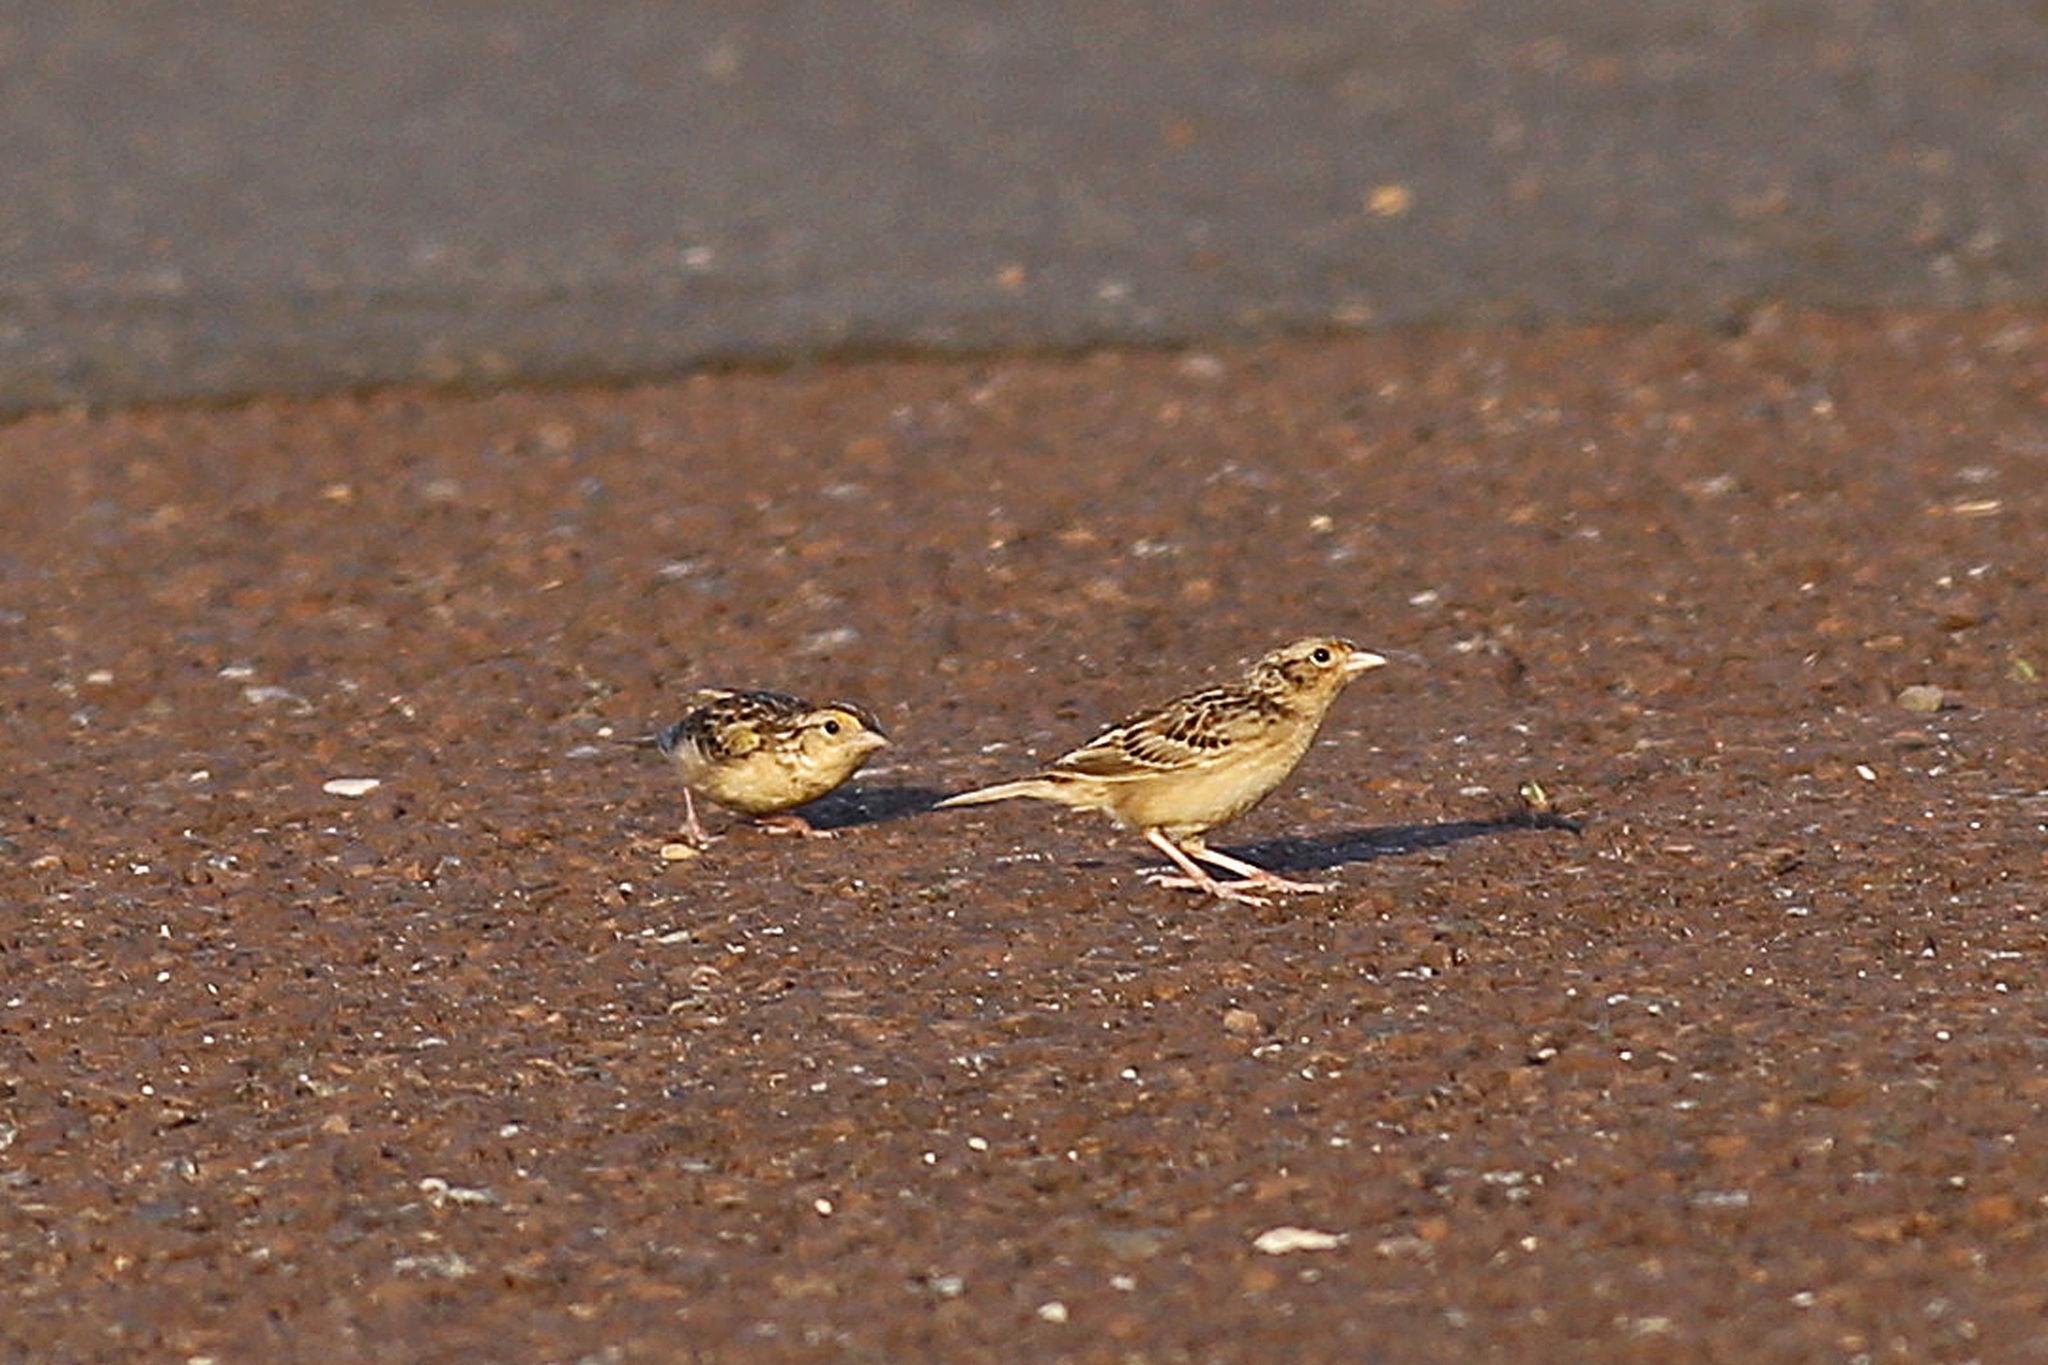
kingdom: Animalia
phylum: Chordata
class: Aves
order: Passeriformes
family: Passerellidae
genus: Ammodramus
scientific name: Ammodramus savannarum
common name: Grasshopper sparrow
